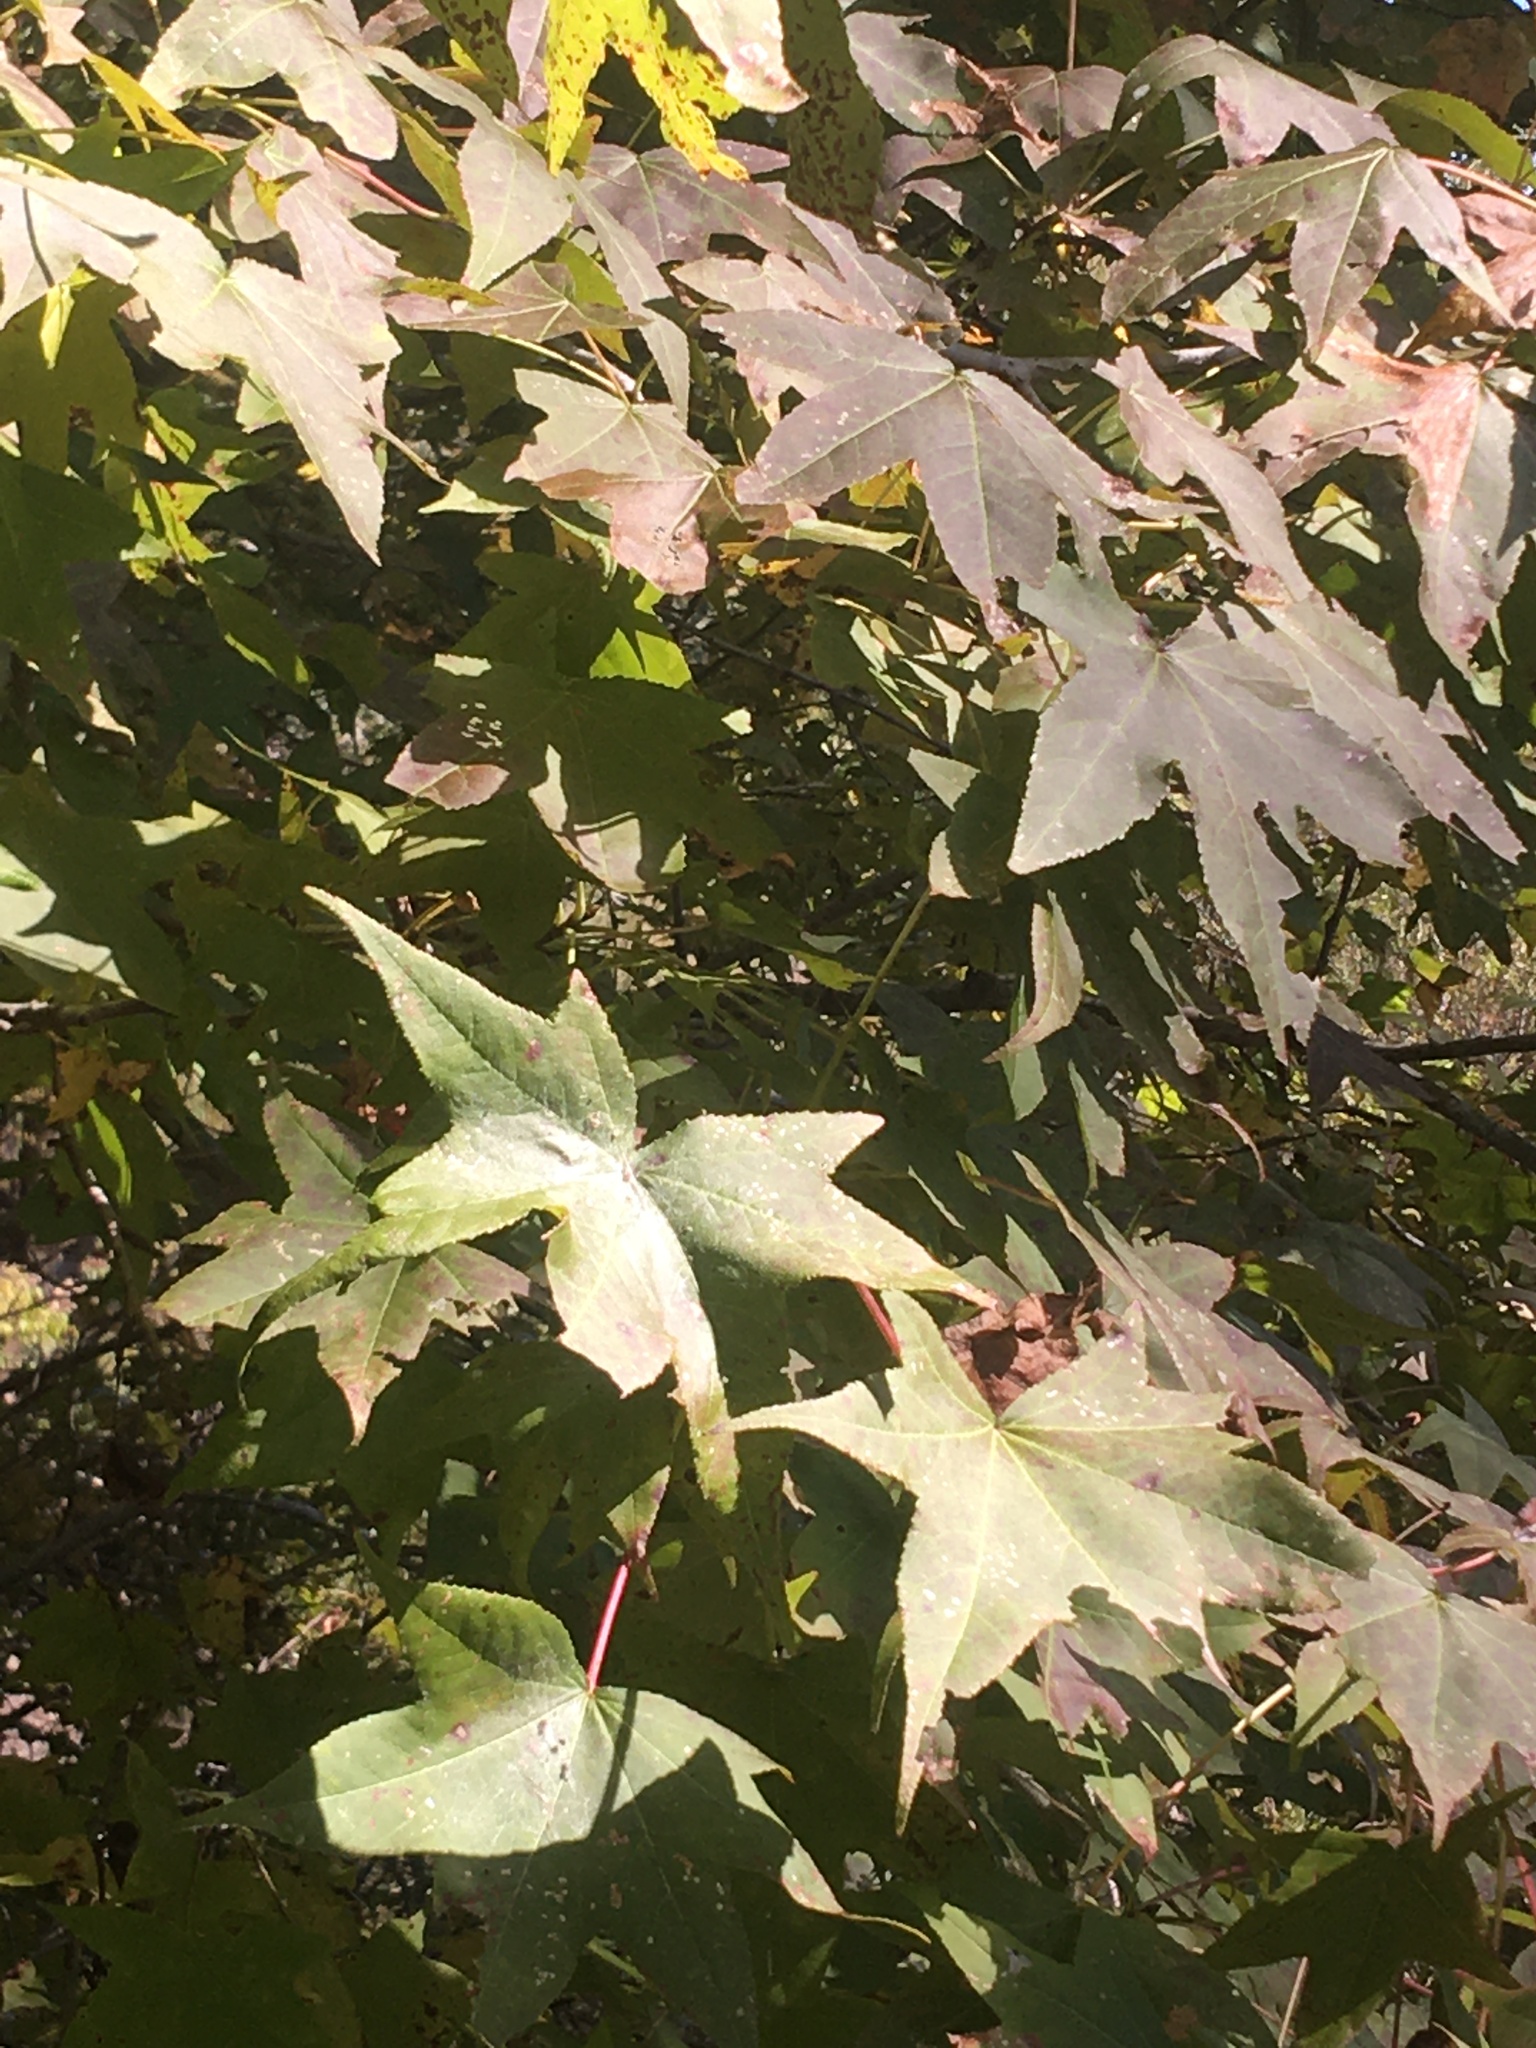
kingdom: Plantae
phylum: Tracheophyta
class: Magnoliopsida
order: Saxifragales
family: Altingiaceae
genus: Liquidambar
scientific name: Liquidambar styraciflua
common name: Sweet gum
